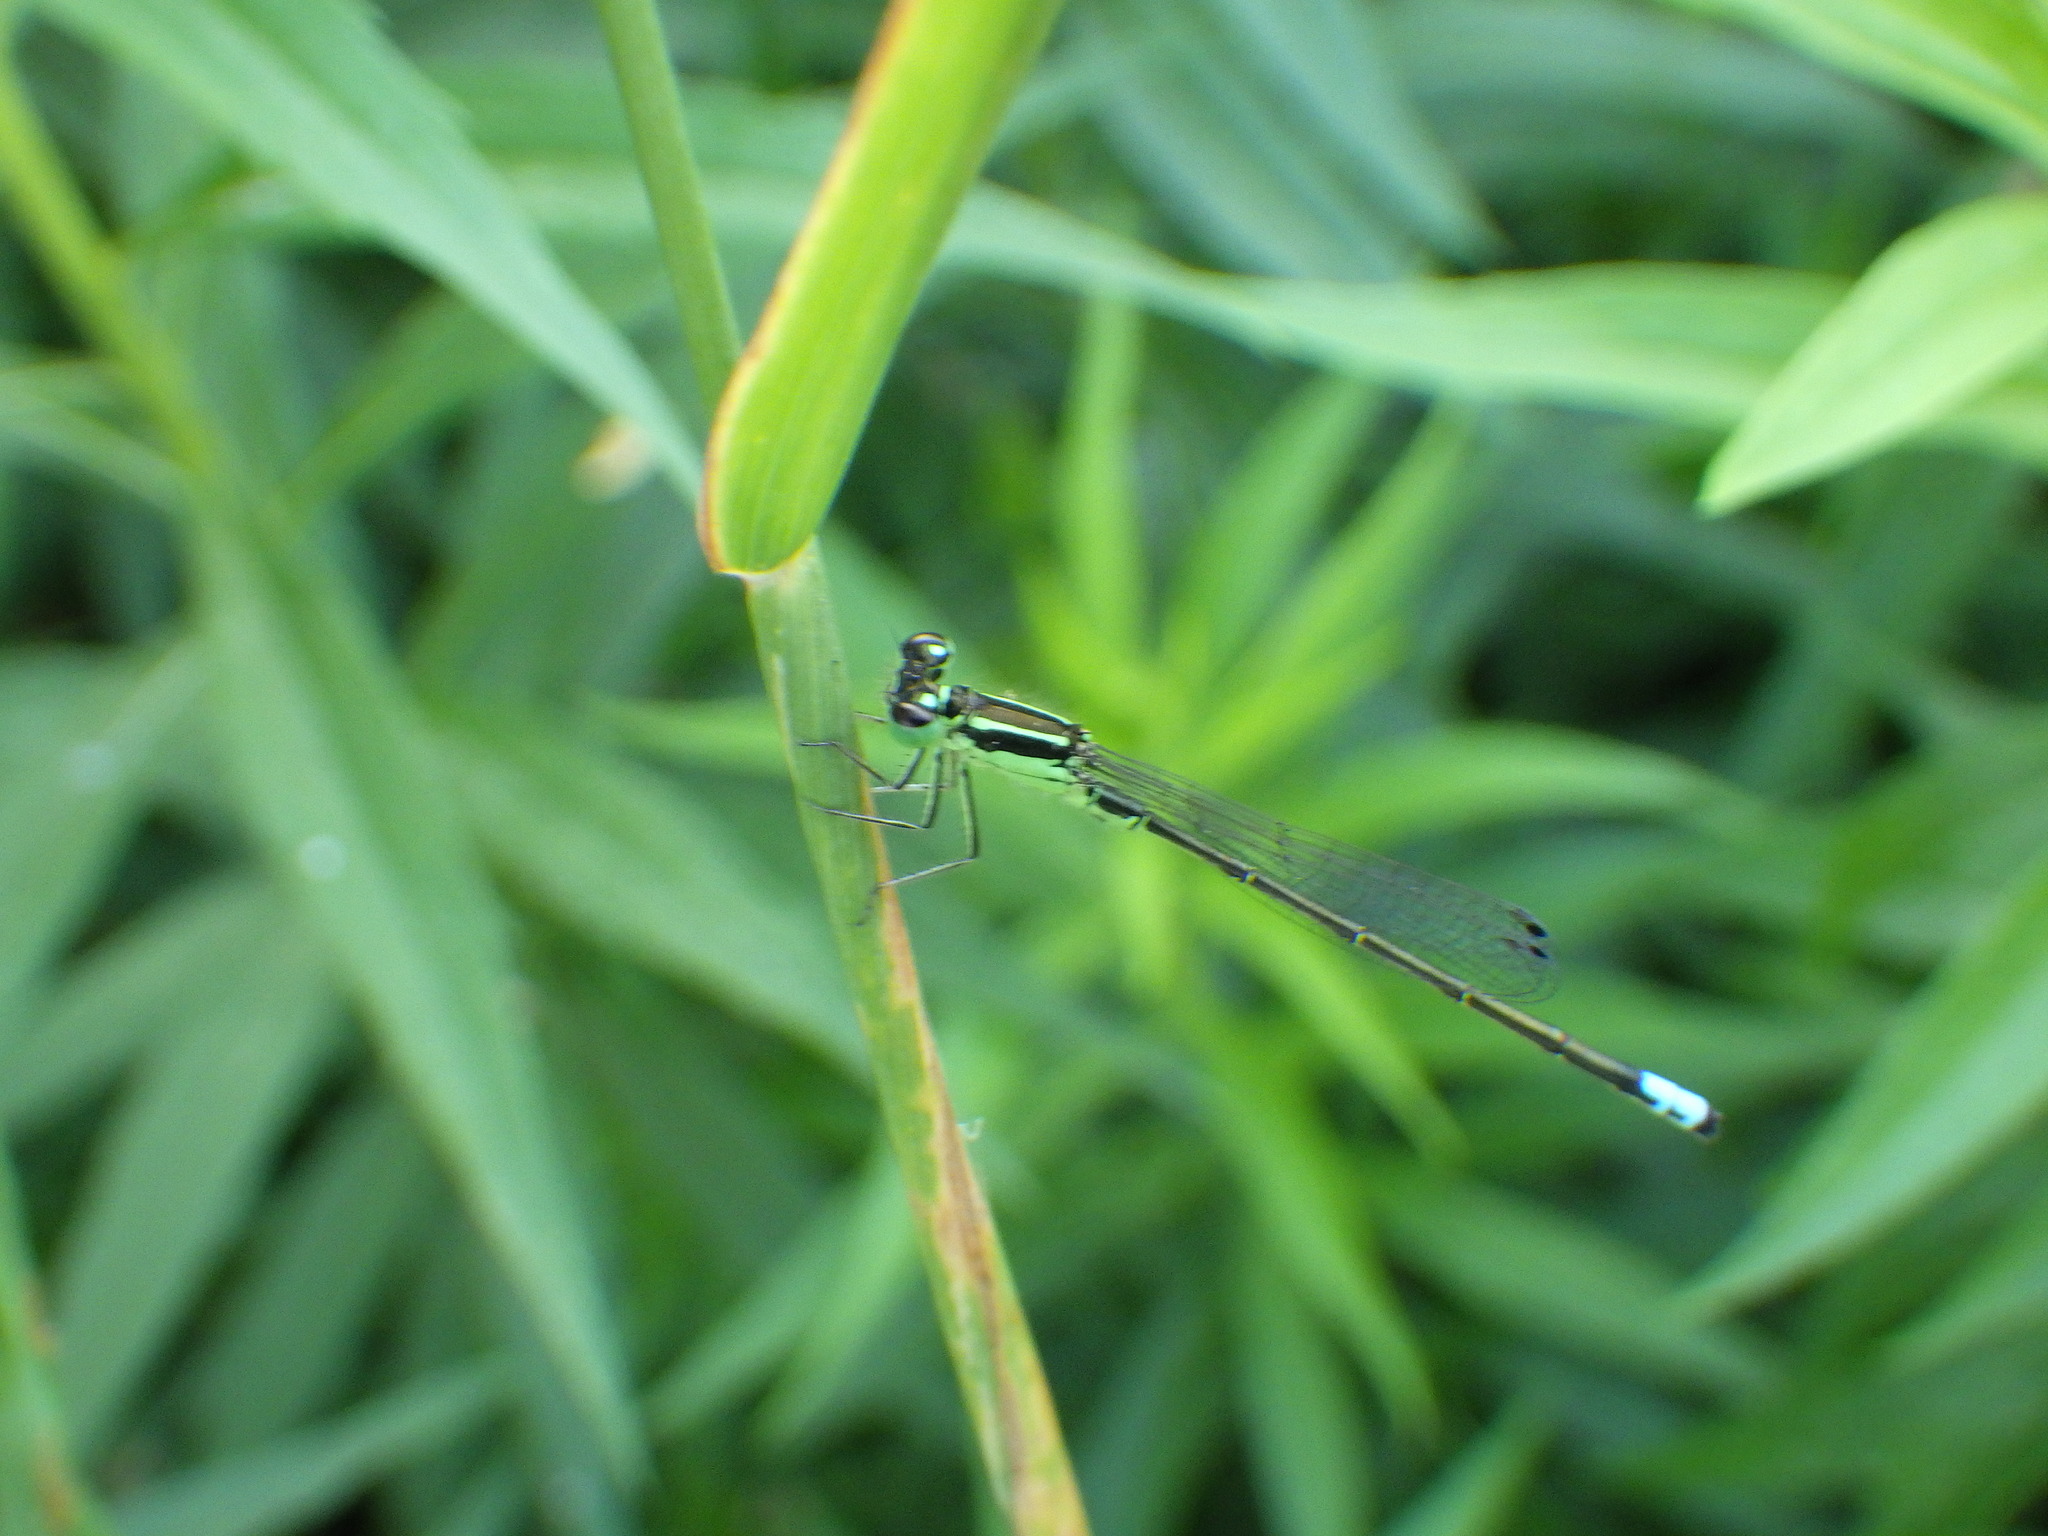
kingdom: Animalia
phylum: Arthropoda
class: Insecta
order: Odonata
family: Coenagrionidae
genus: Ischnura
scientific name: Ischnura verticalis
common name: Eastern forktail
